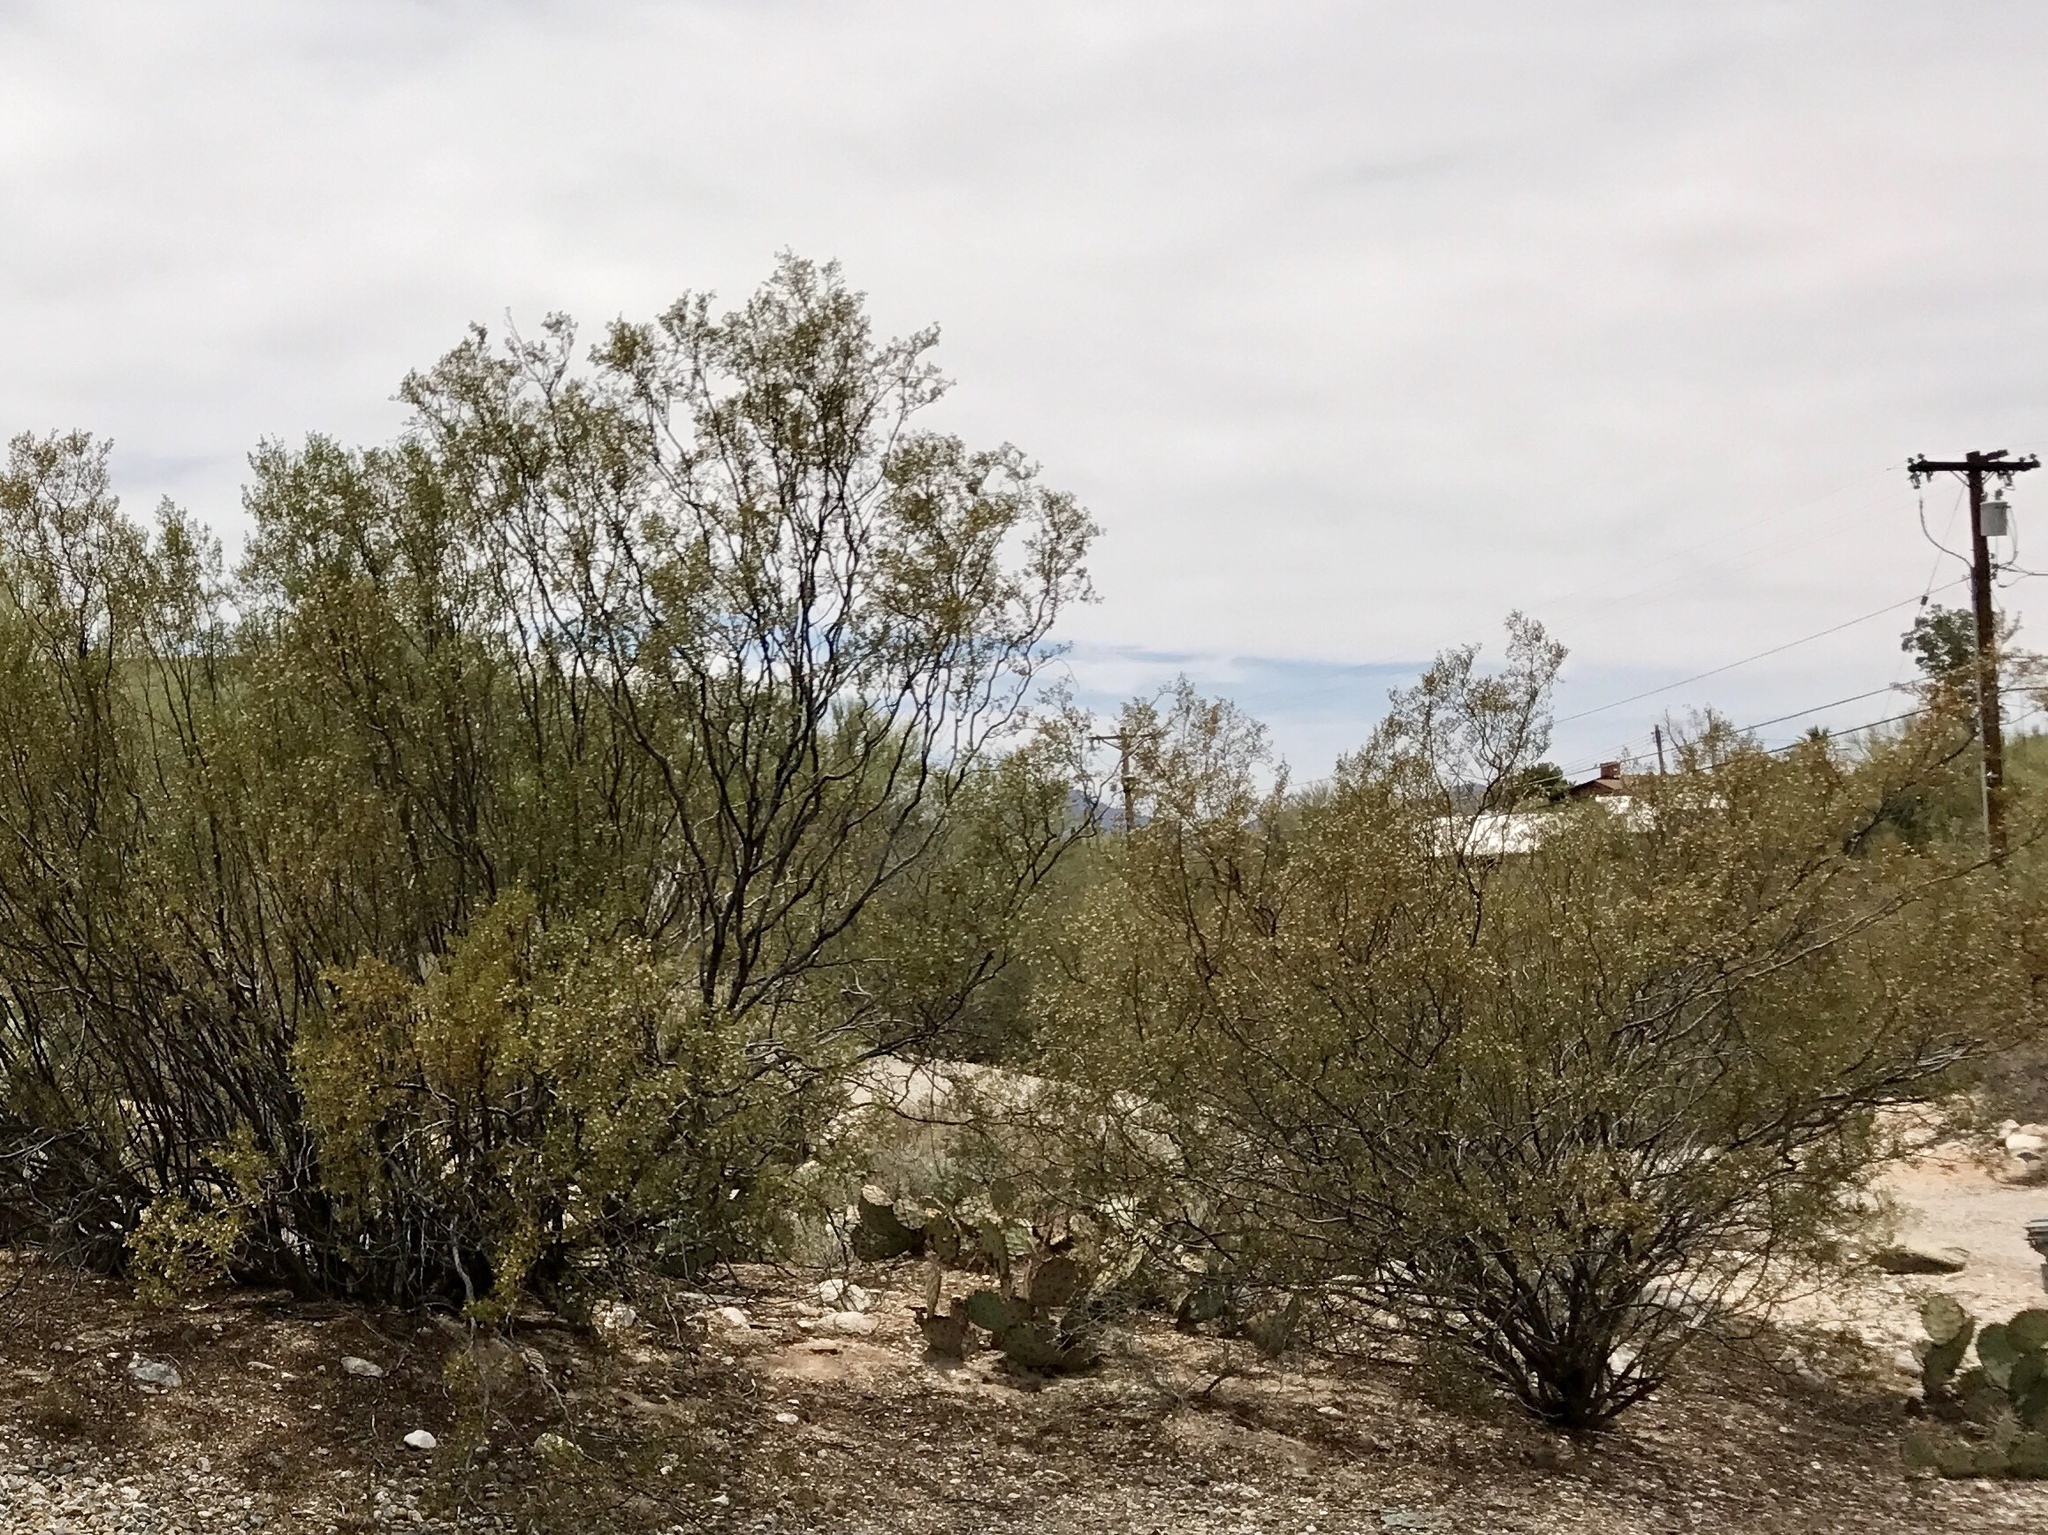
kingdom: Plantae
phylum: Tracheophyta
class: Magnoliopsida
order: Zygophyllales
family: Zygophyllaceae
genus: Larrea
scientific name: Larrea tridentata
